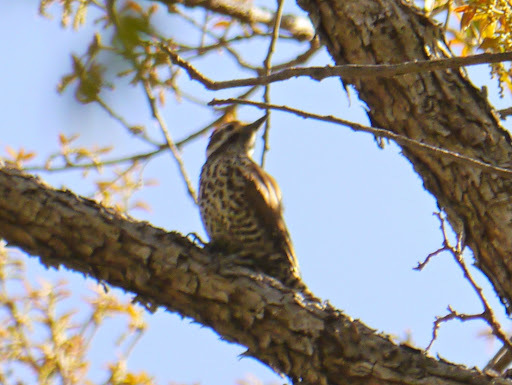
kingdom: Animalia
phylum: Chordata
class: Aves
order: Piciformes
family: Picidae
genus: Leuconotopicus
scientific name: Leuconotopicus arizonae
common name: Arizona woodpecker
